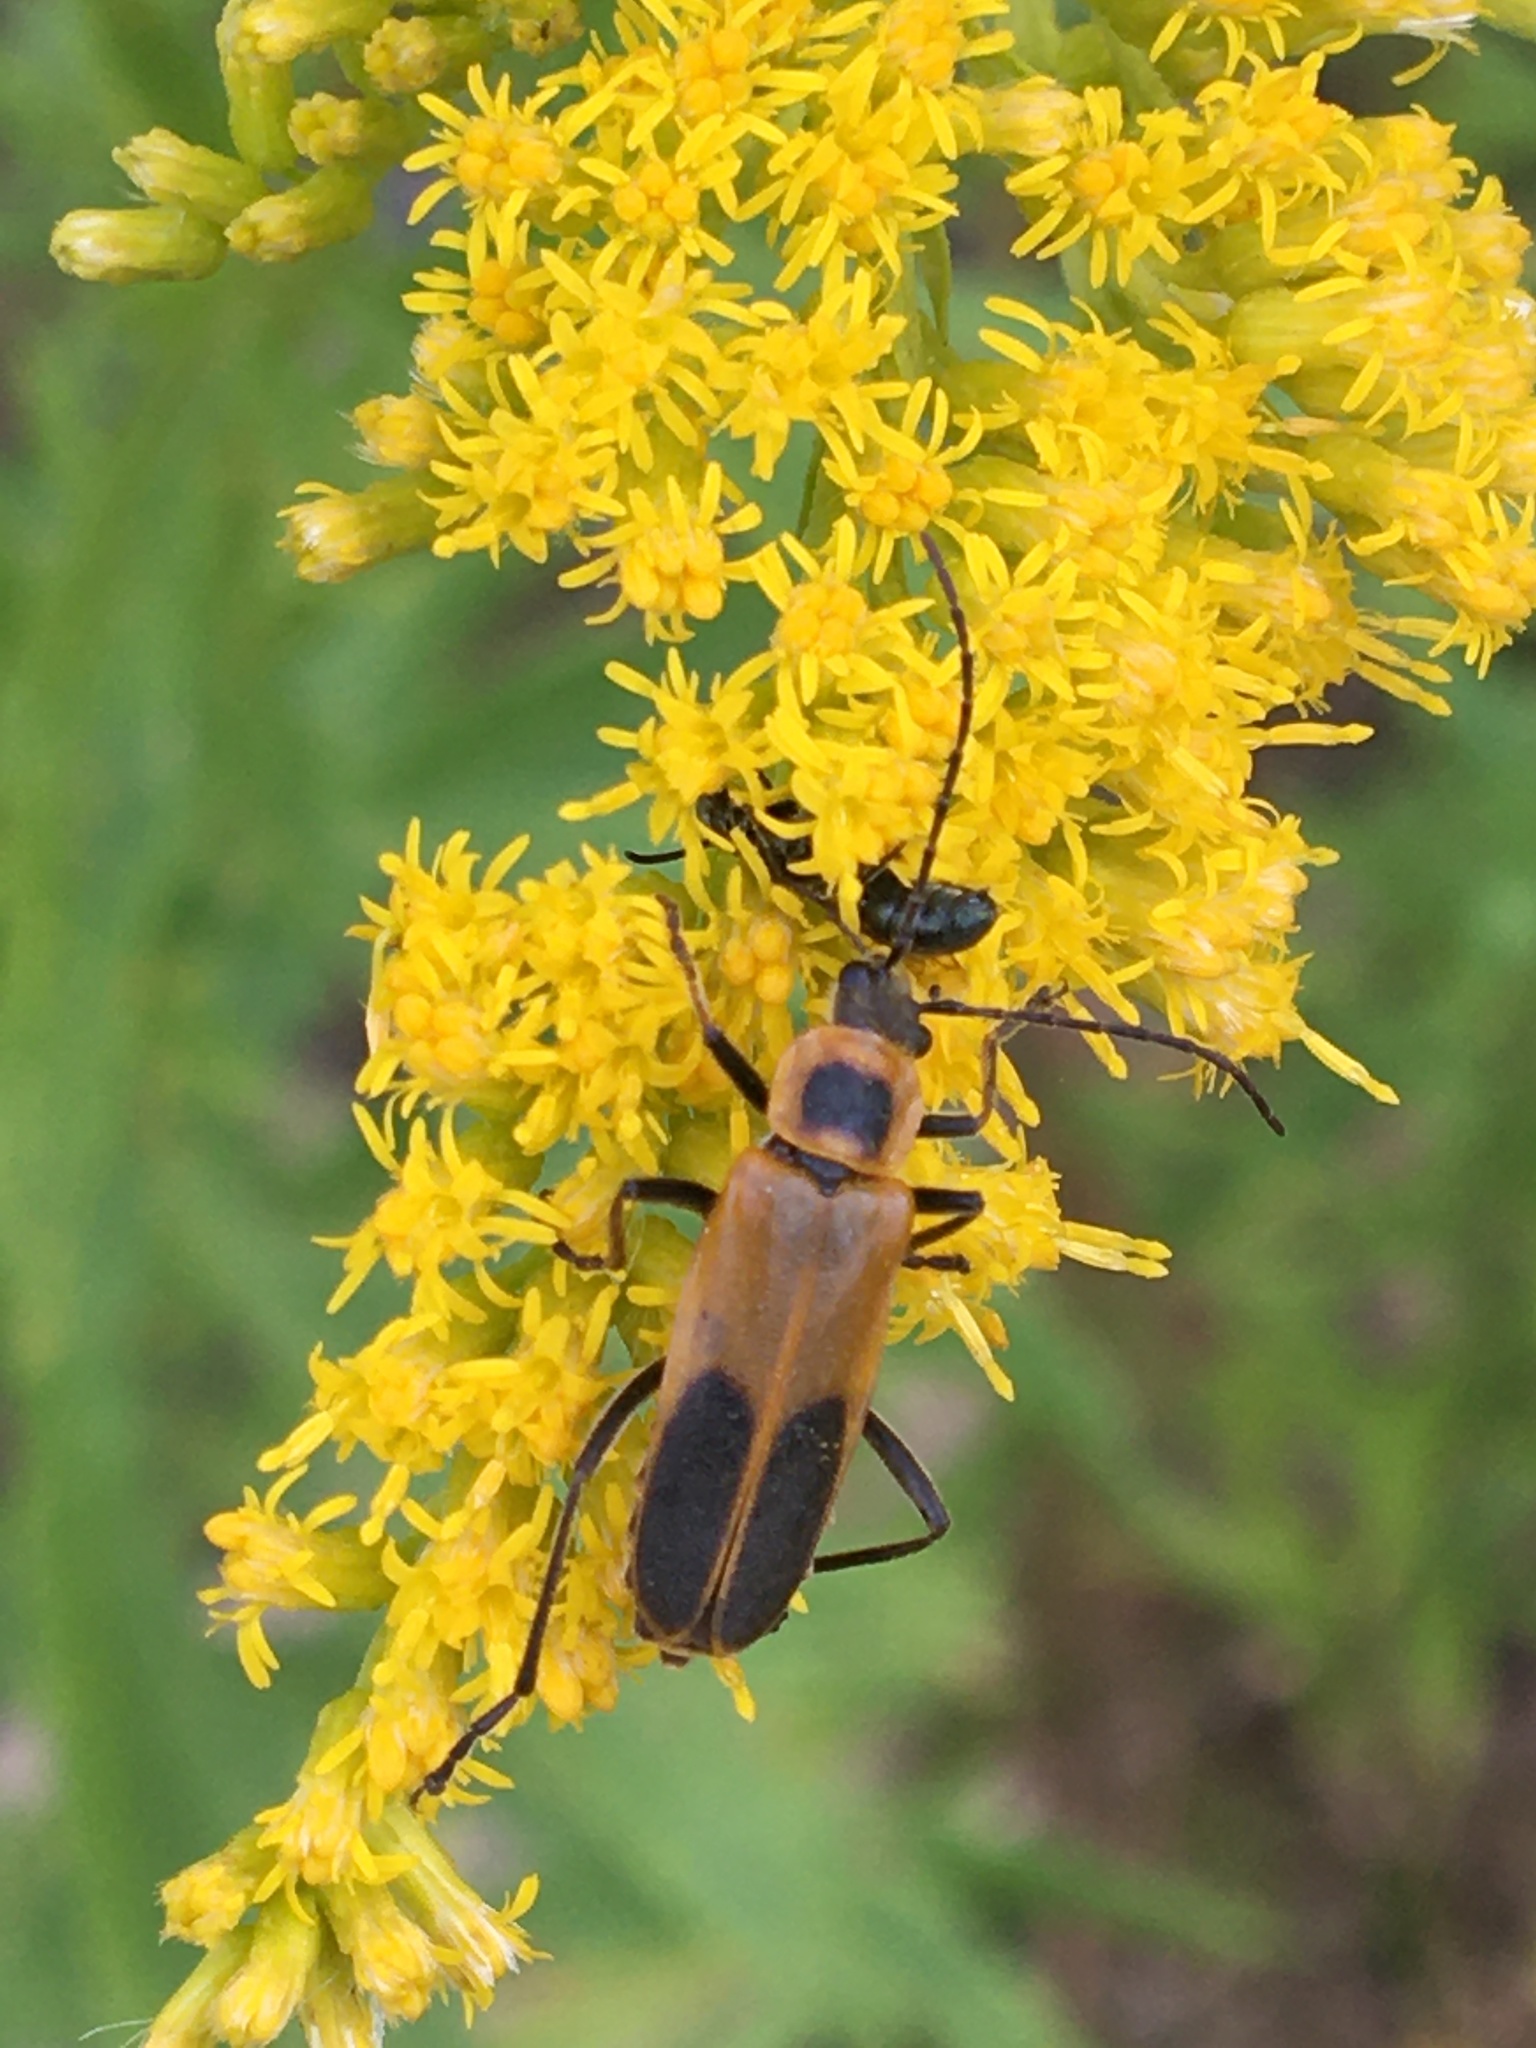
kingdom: Animalia
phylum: Arthropoda
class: Insecta
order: Coleoptera
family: Cantharidae
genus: Chauliognathus
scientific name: Chauliognathus pensylvanicus
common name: Goldenrod soldier beetle
